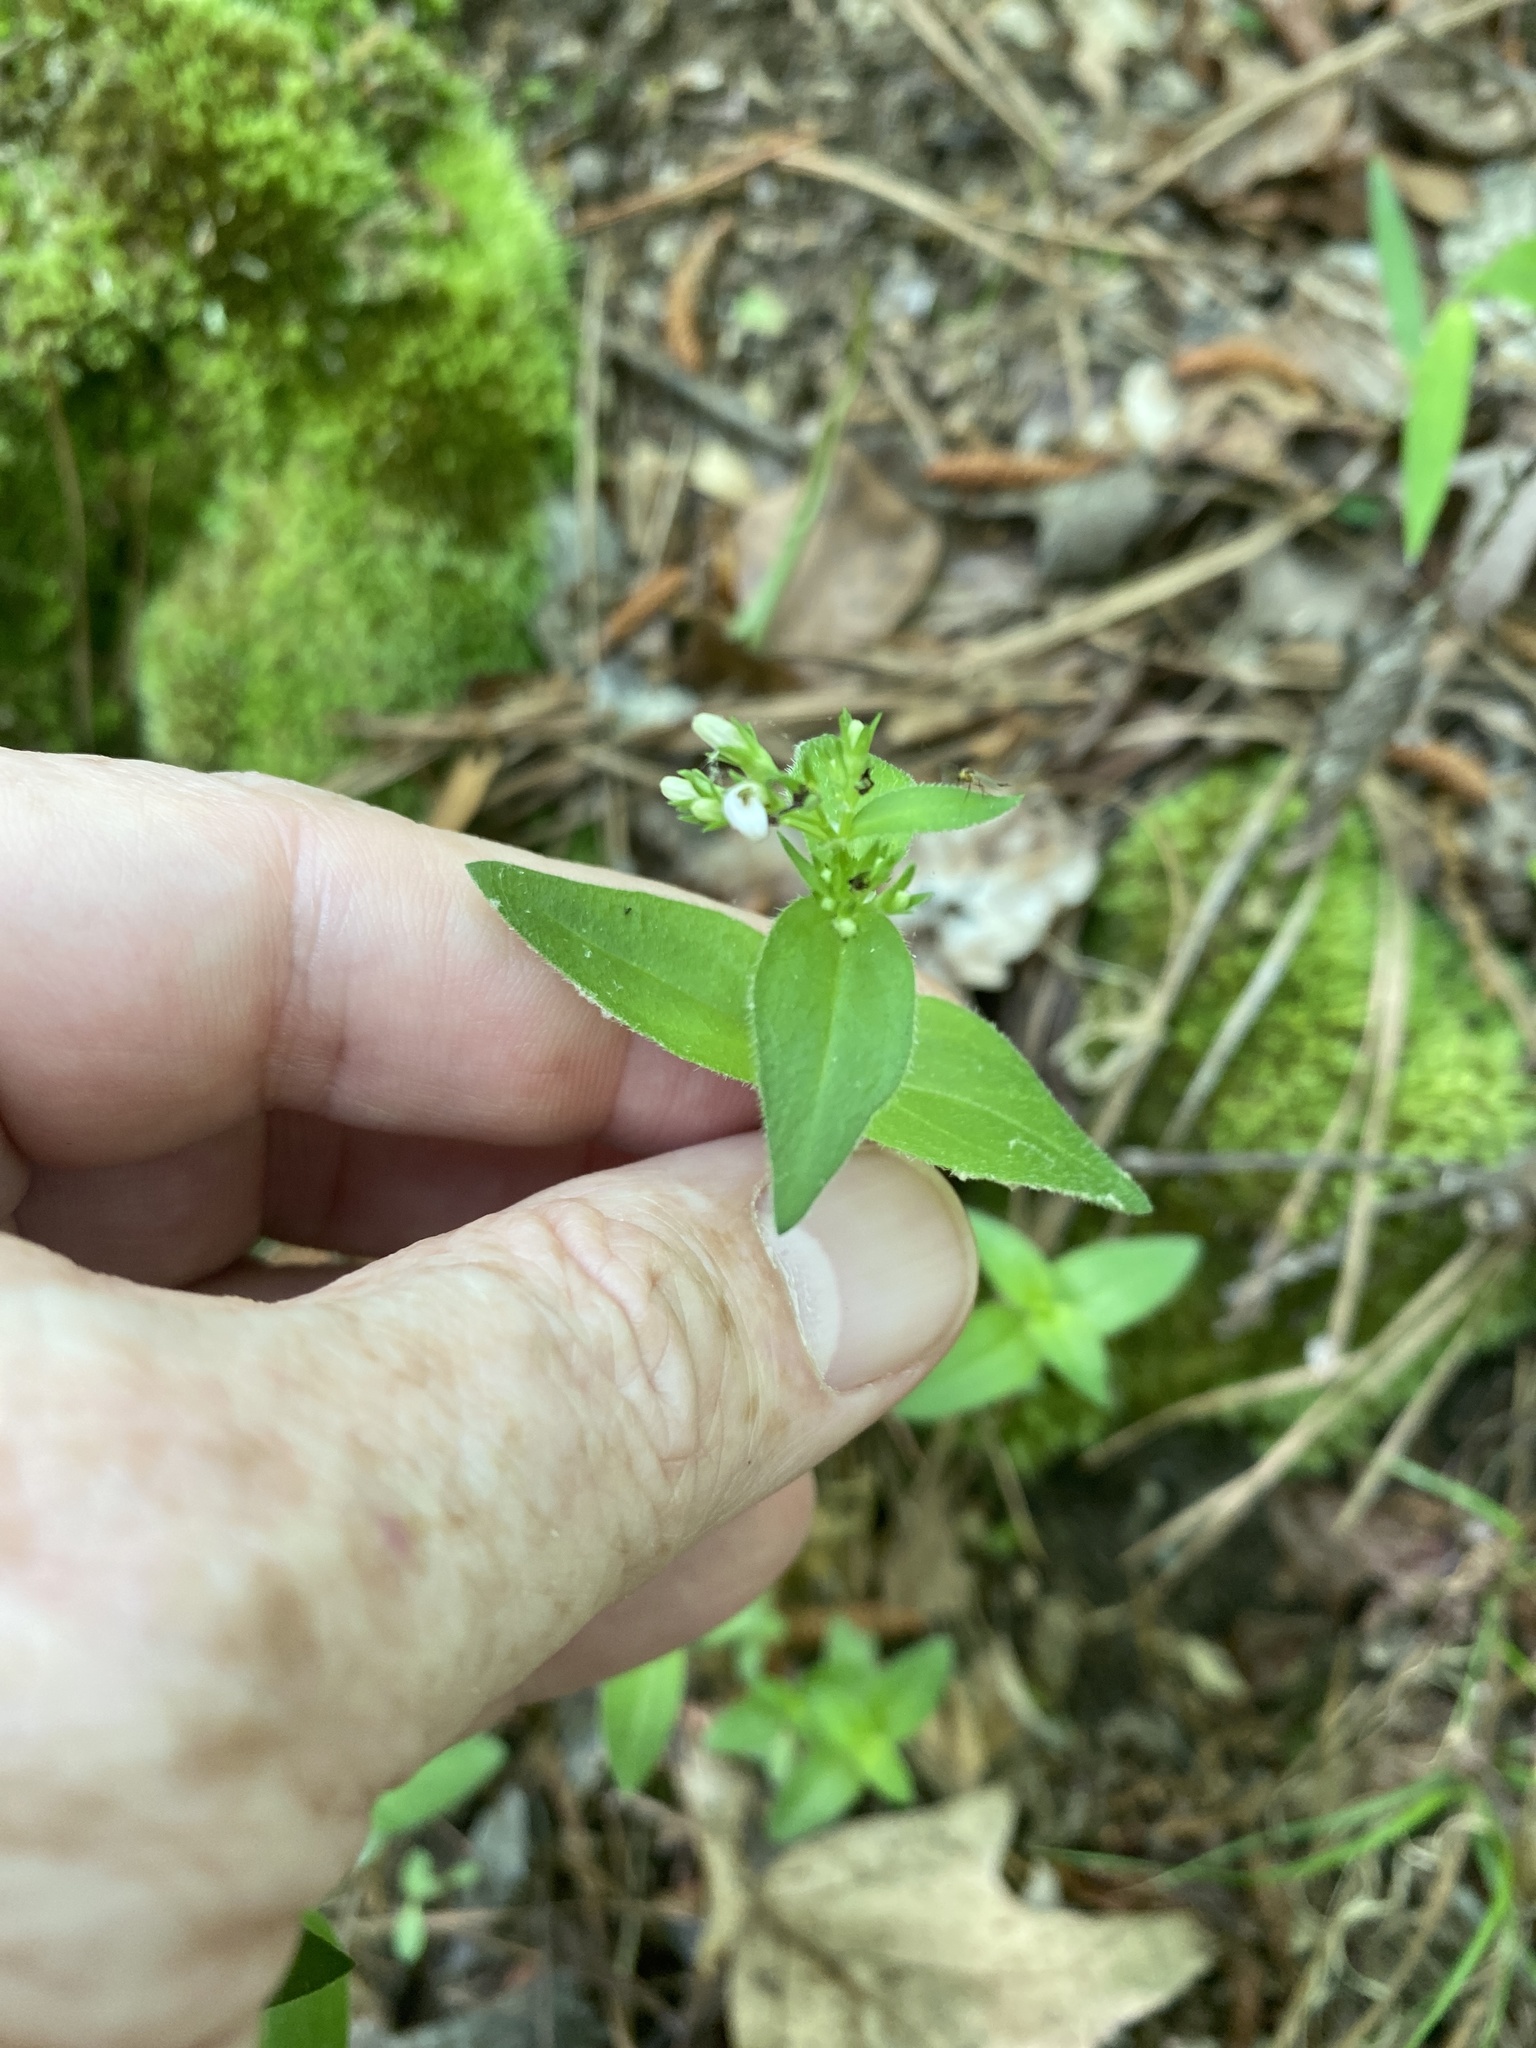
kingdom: Plantae
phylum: Tracheophyta
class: Magnoliopsida
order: Gentianales
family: Rubiaceae
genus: Houstonia
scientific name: Houstonia purpurea
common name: Summer bluet
